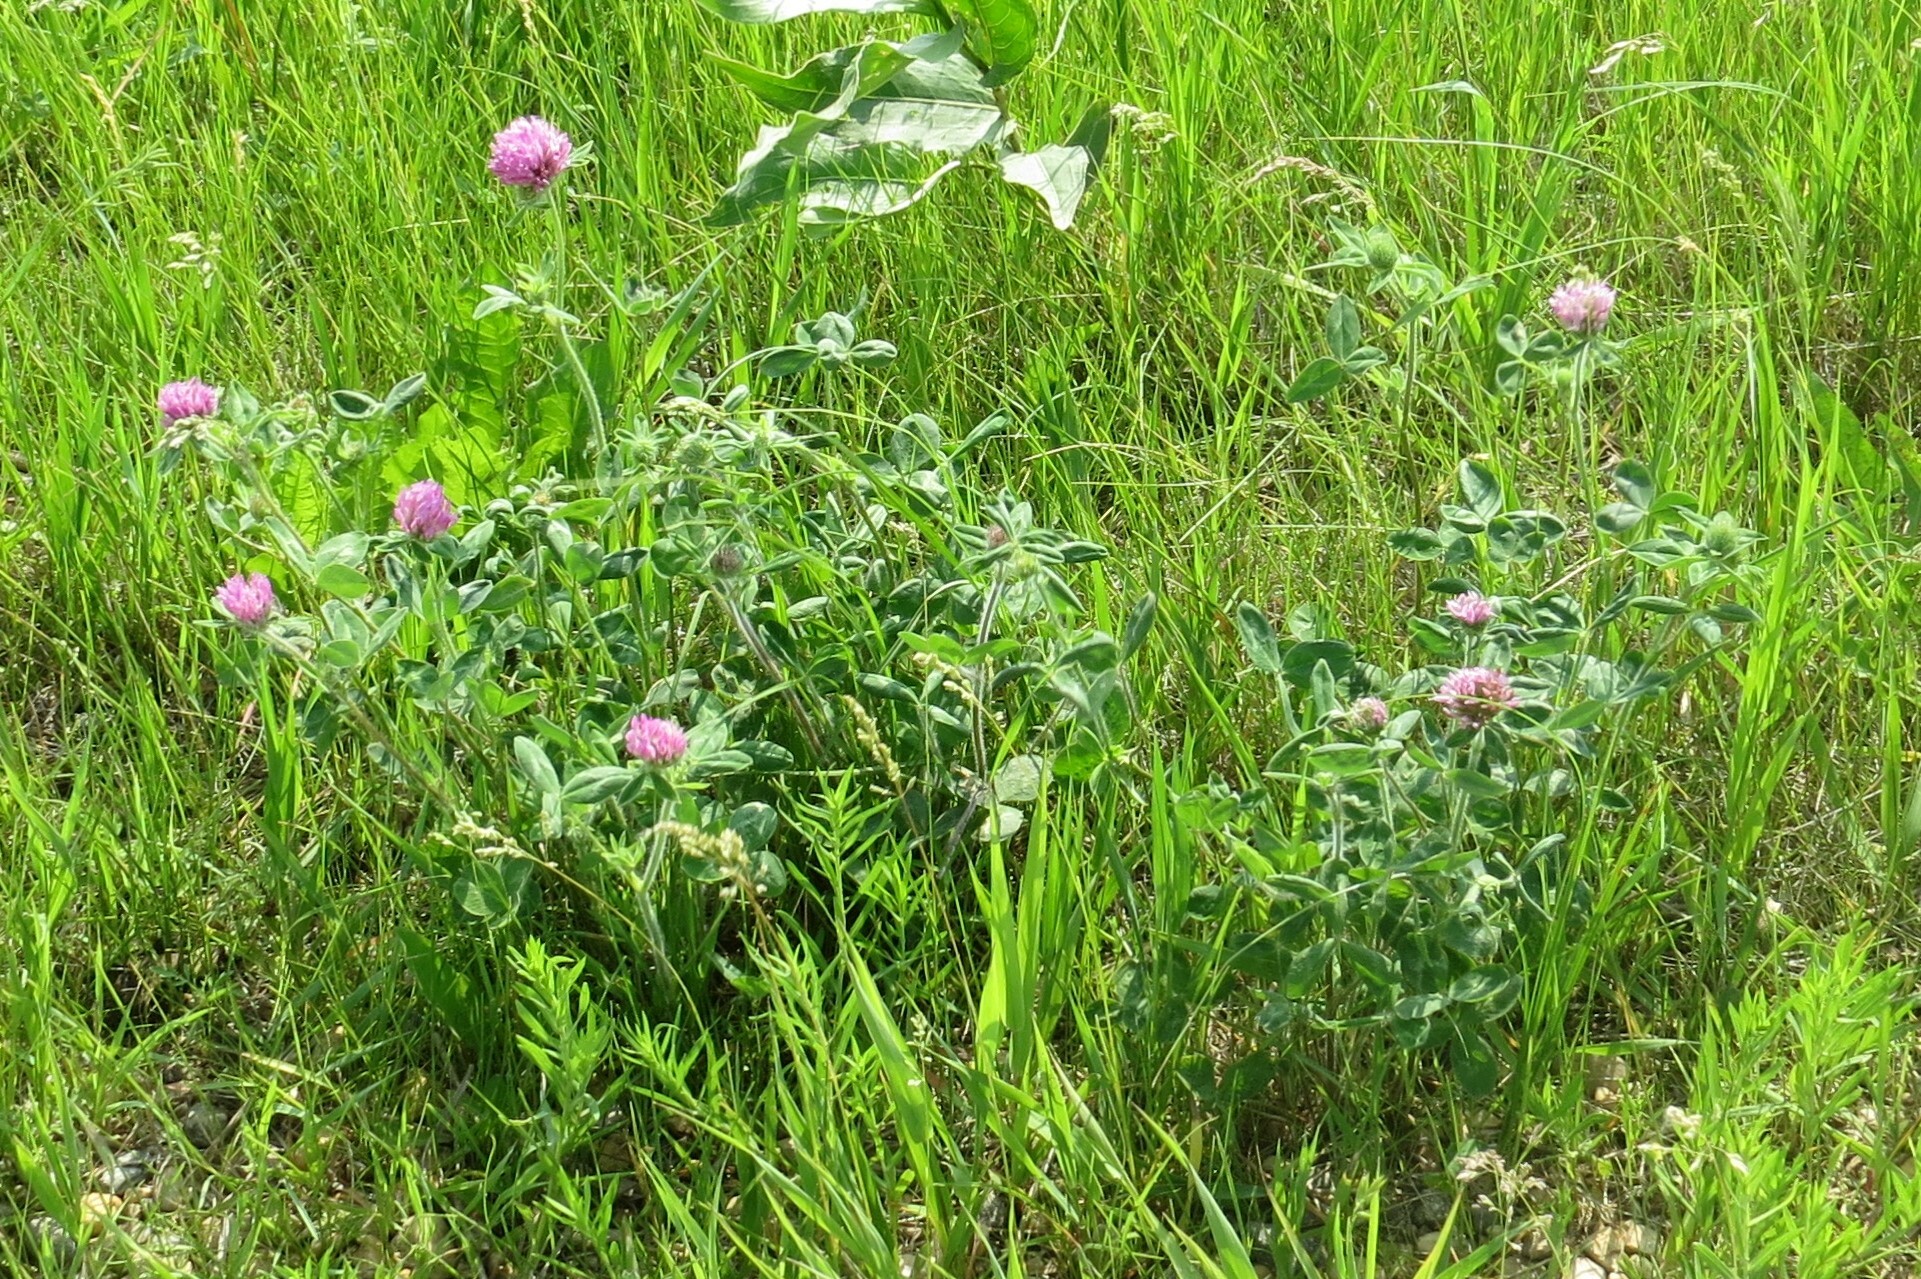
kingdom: Plantae
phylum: Tracheophyta
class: Magnoliopsida
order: Fabales
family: Fabaceae
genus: Trifolium
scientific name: Trifolium pratense
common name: Red clover
